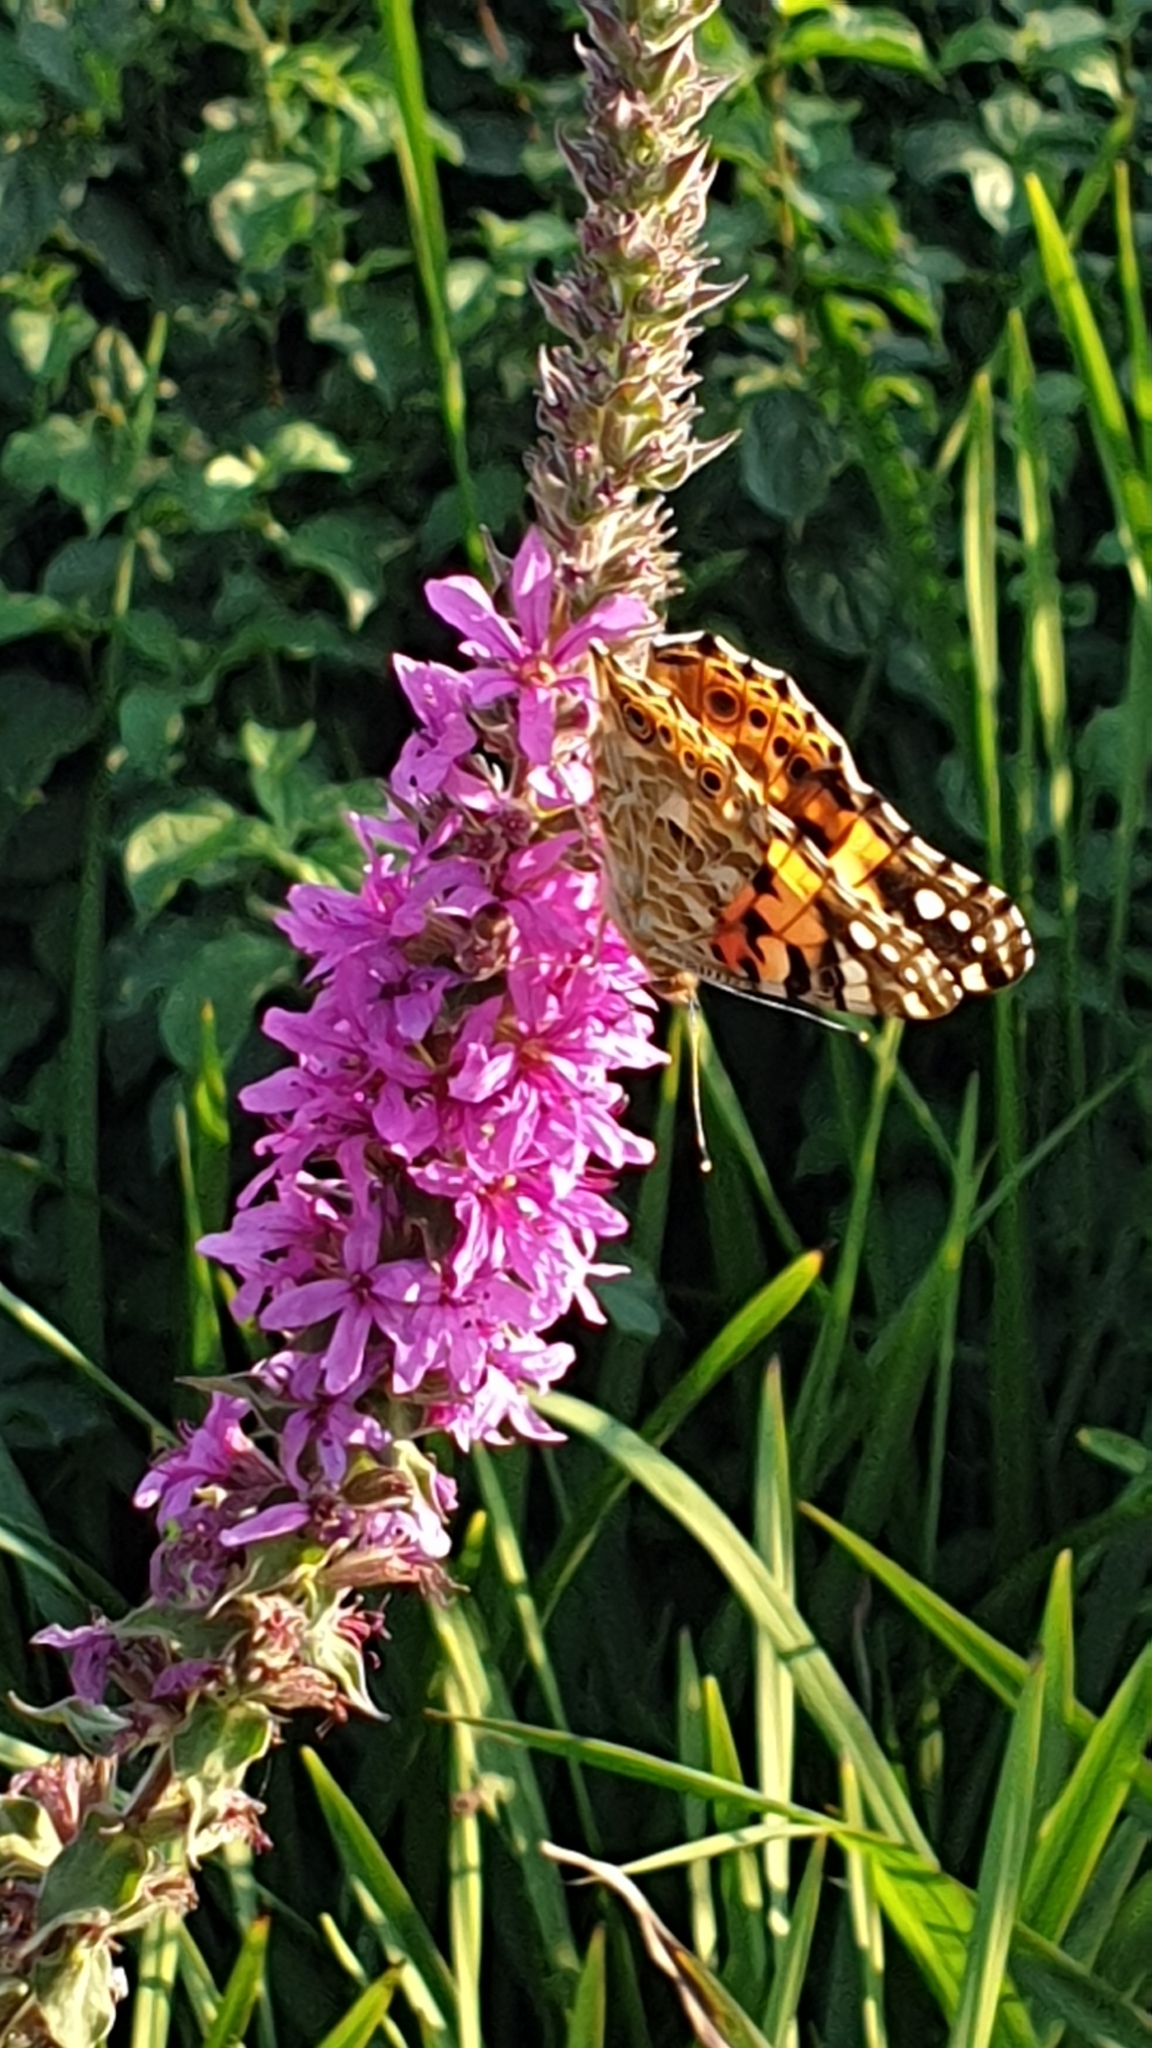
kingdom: Animalia
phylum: Arthropoda
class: Insecta
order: Lepidoptera
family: Nymphalidae
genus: Vanessa
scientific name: Vanessa cardui
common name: Painted lady
